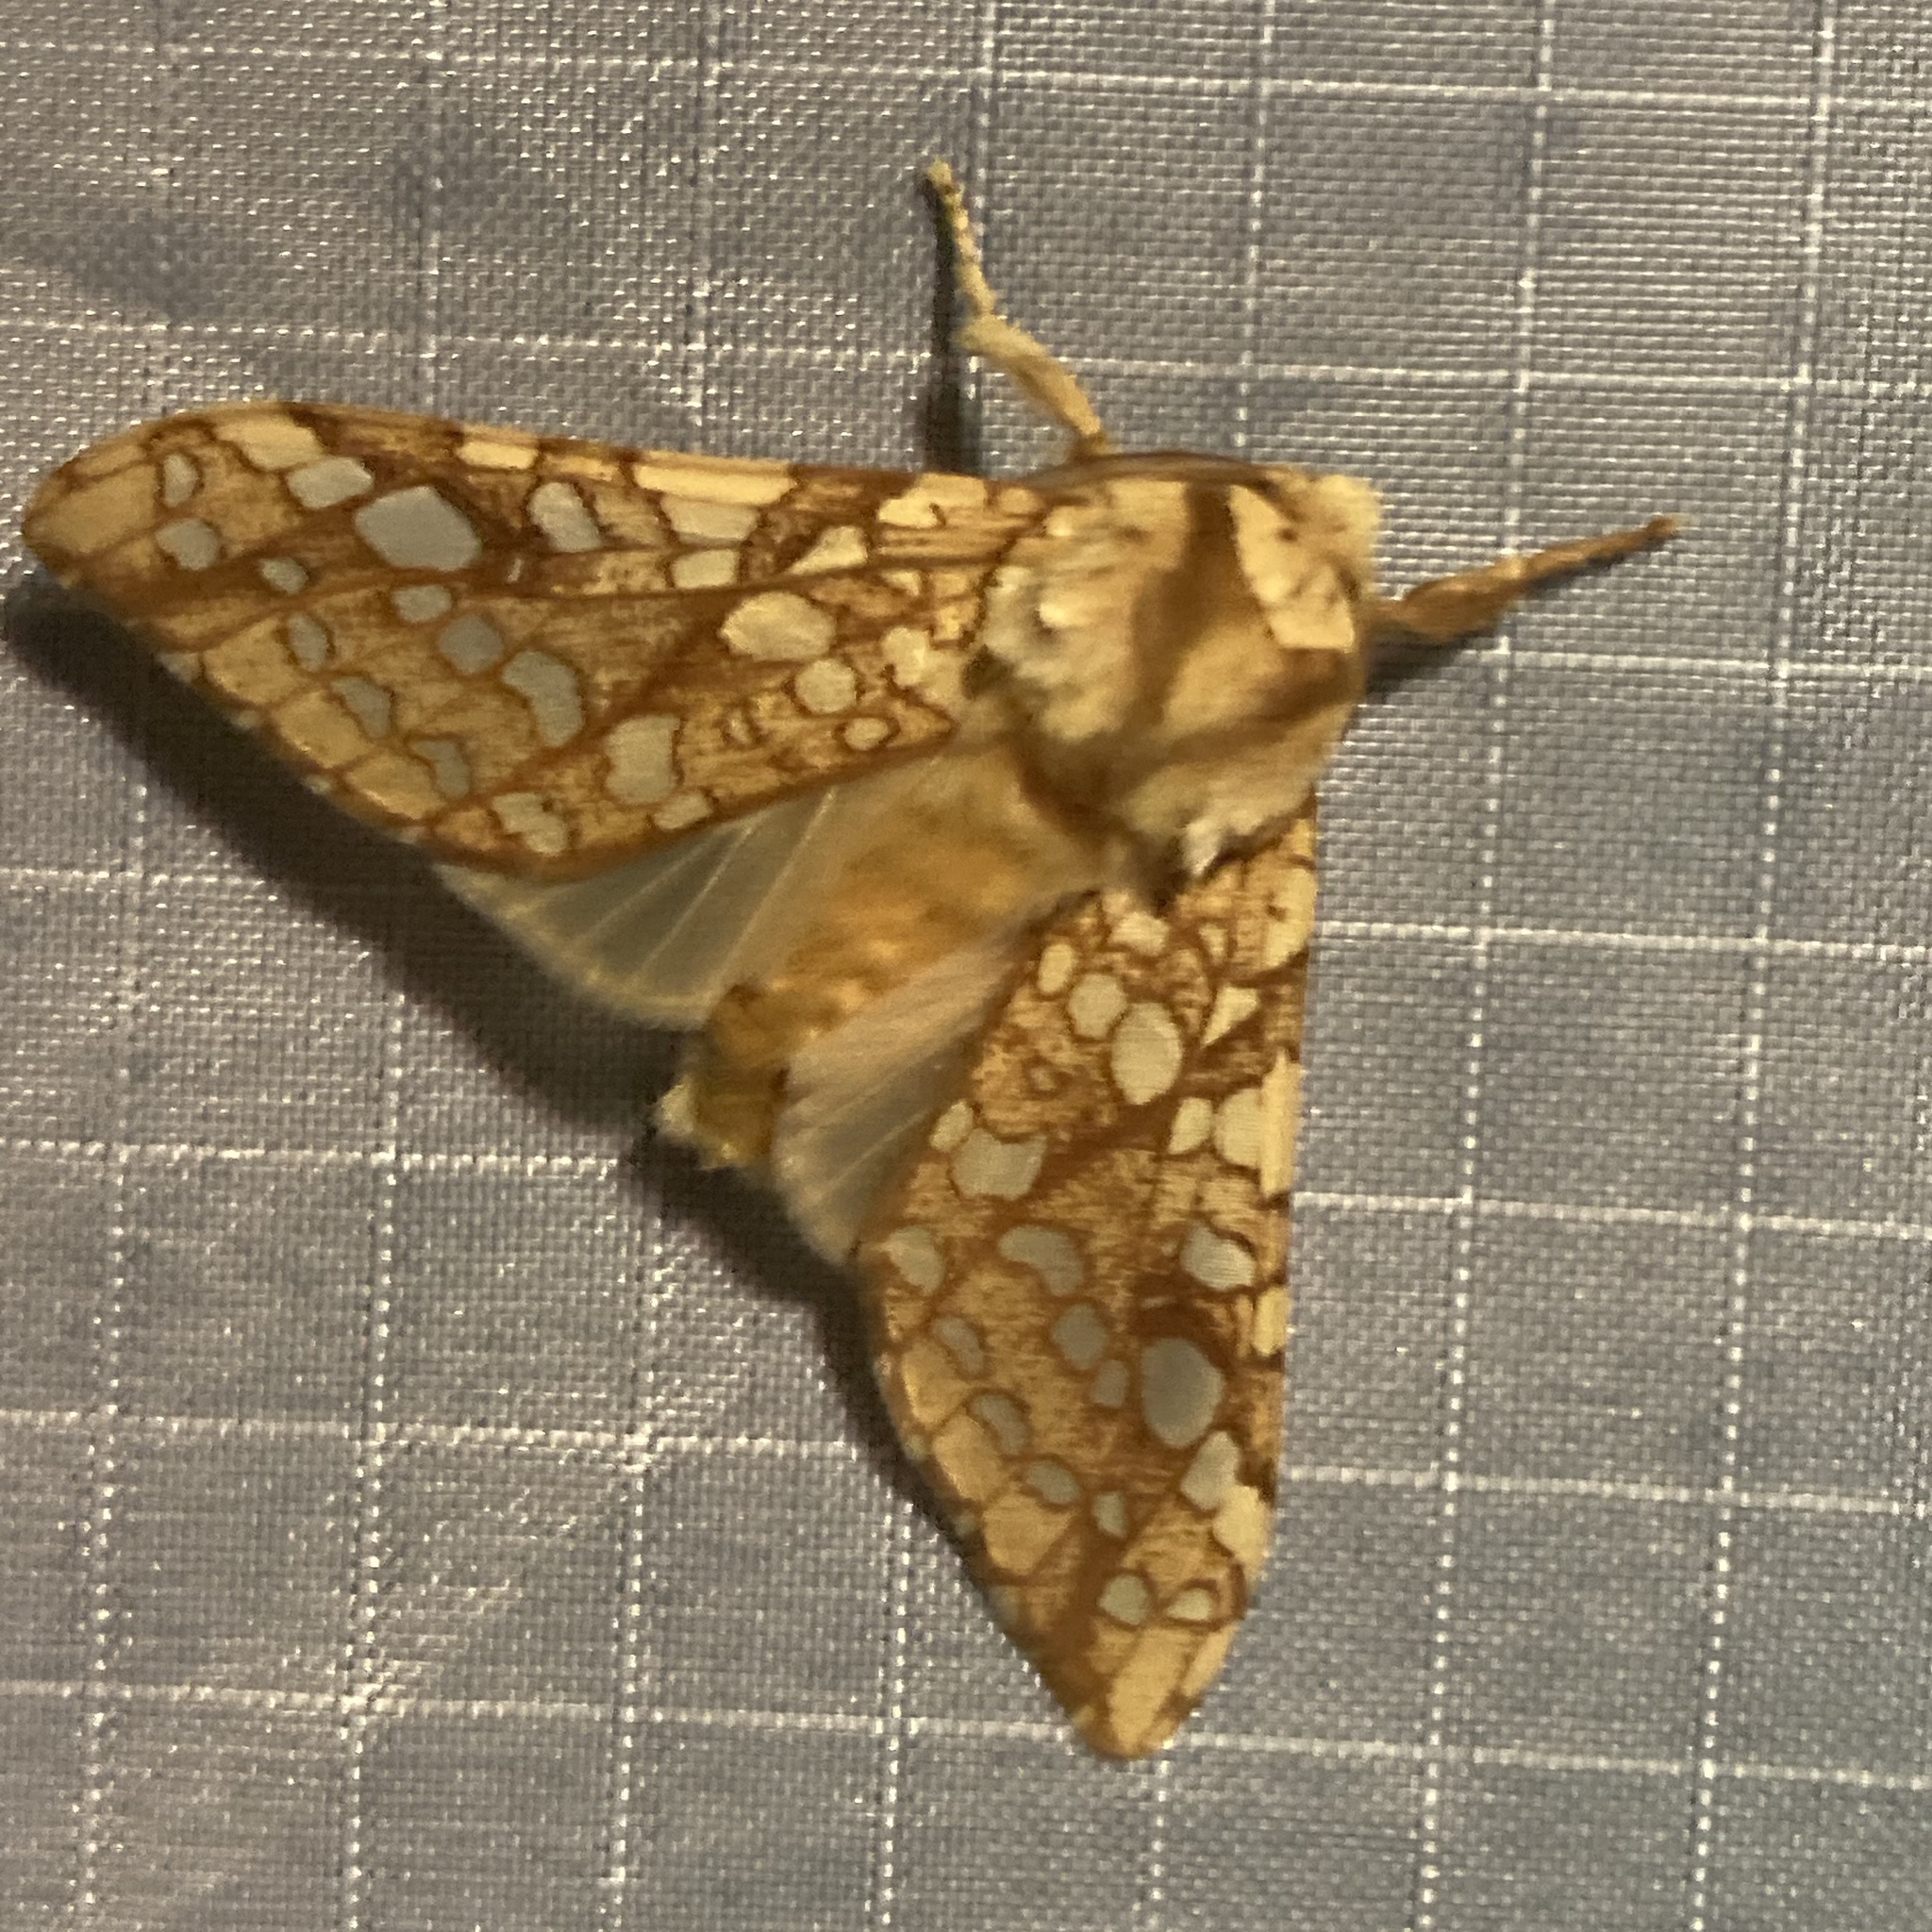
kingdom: Animalia
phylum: Arthropoda
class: Insecta
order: Lepidoptera
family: Erebidae
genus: Lophocampa
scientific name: Lophocampa caryae
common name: Hickory tussock moth
